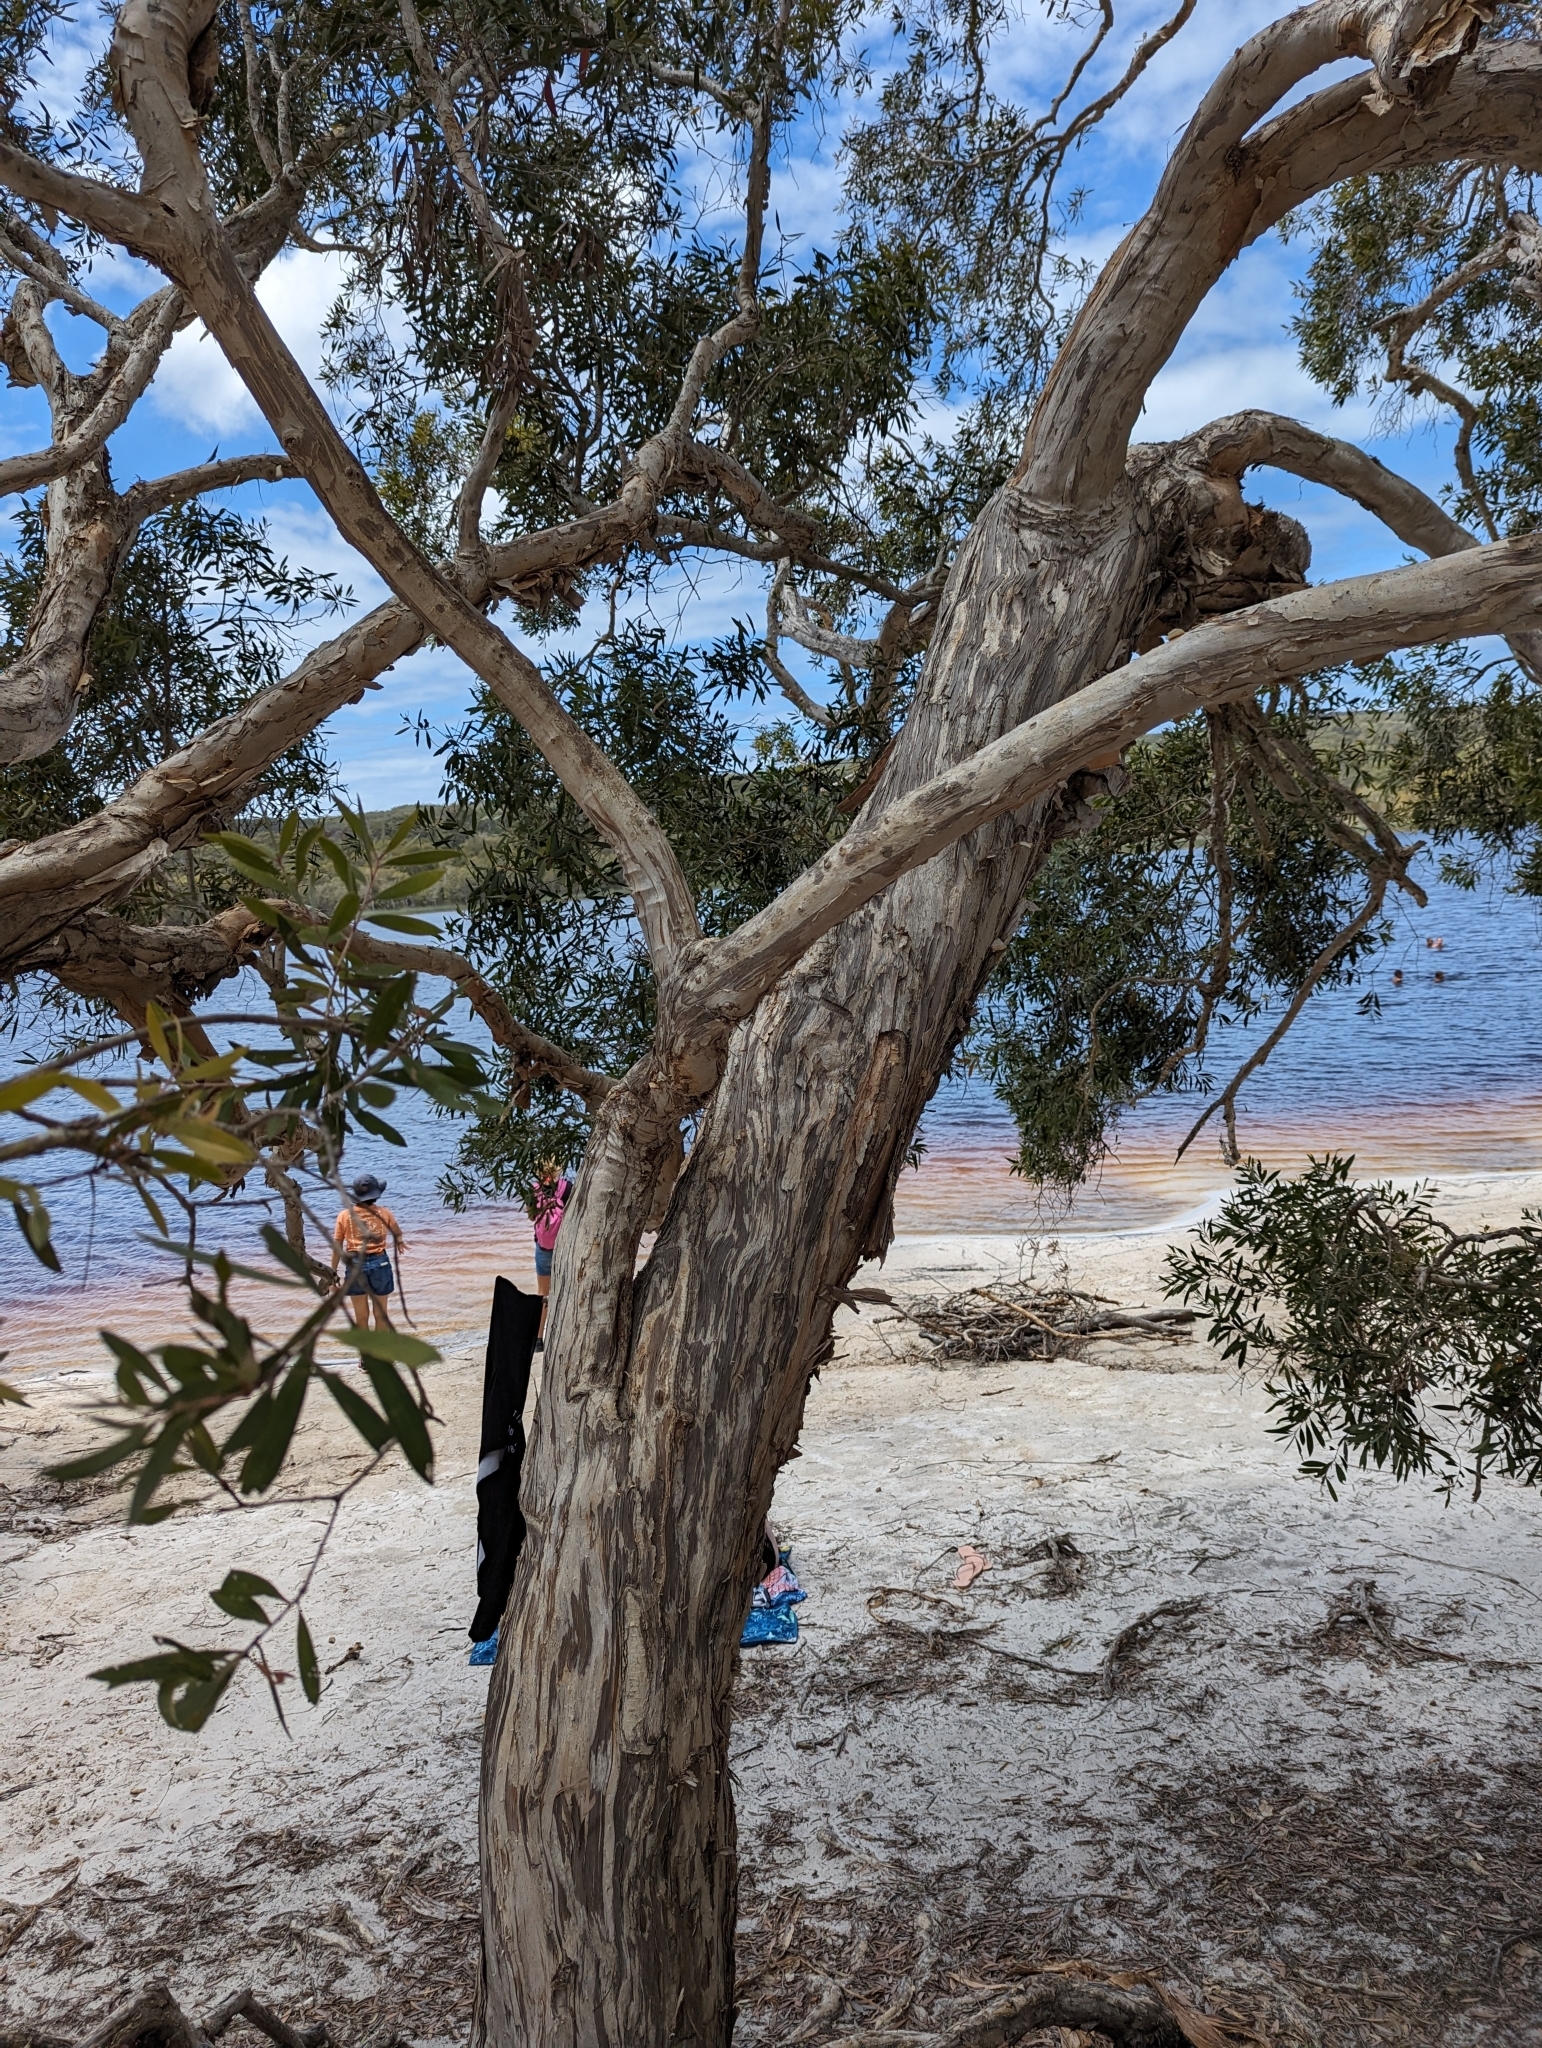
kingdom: Plantae
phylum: Tracheophyta
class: Magnoliopsida
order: Myrtales
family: Myrtaceae
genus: Melaleuca
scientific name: Melaleuca quinquenervia
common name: Punktree
